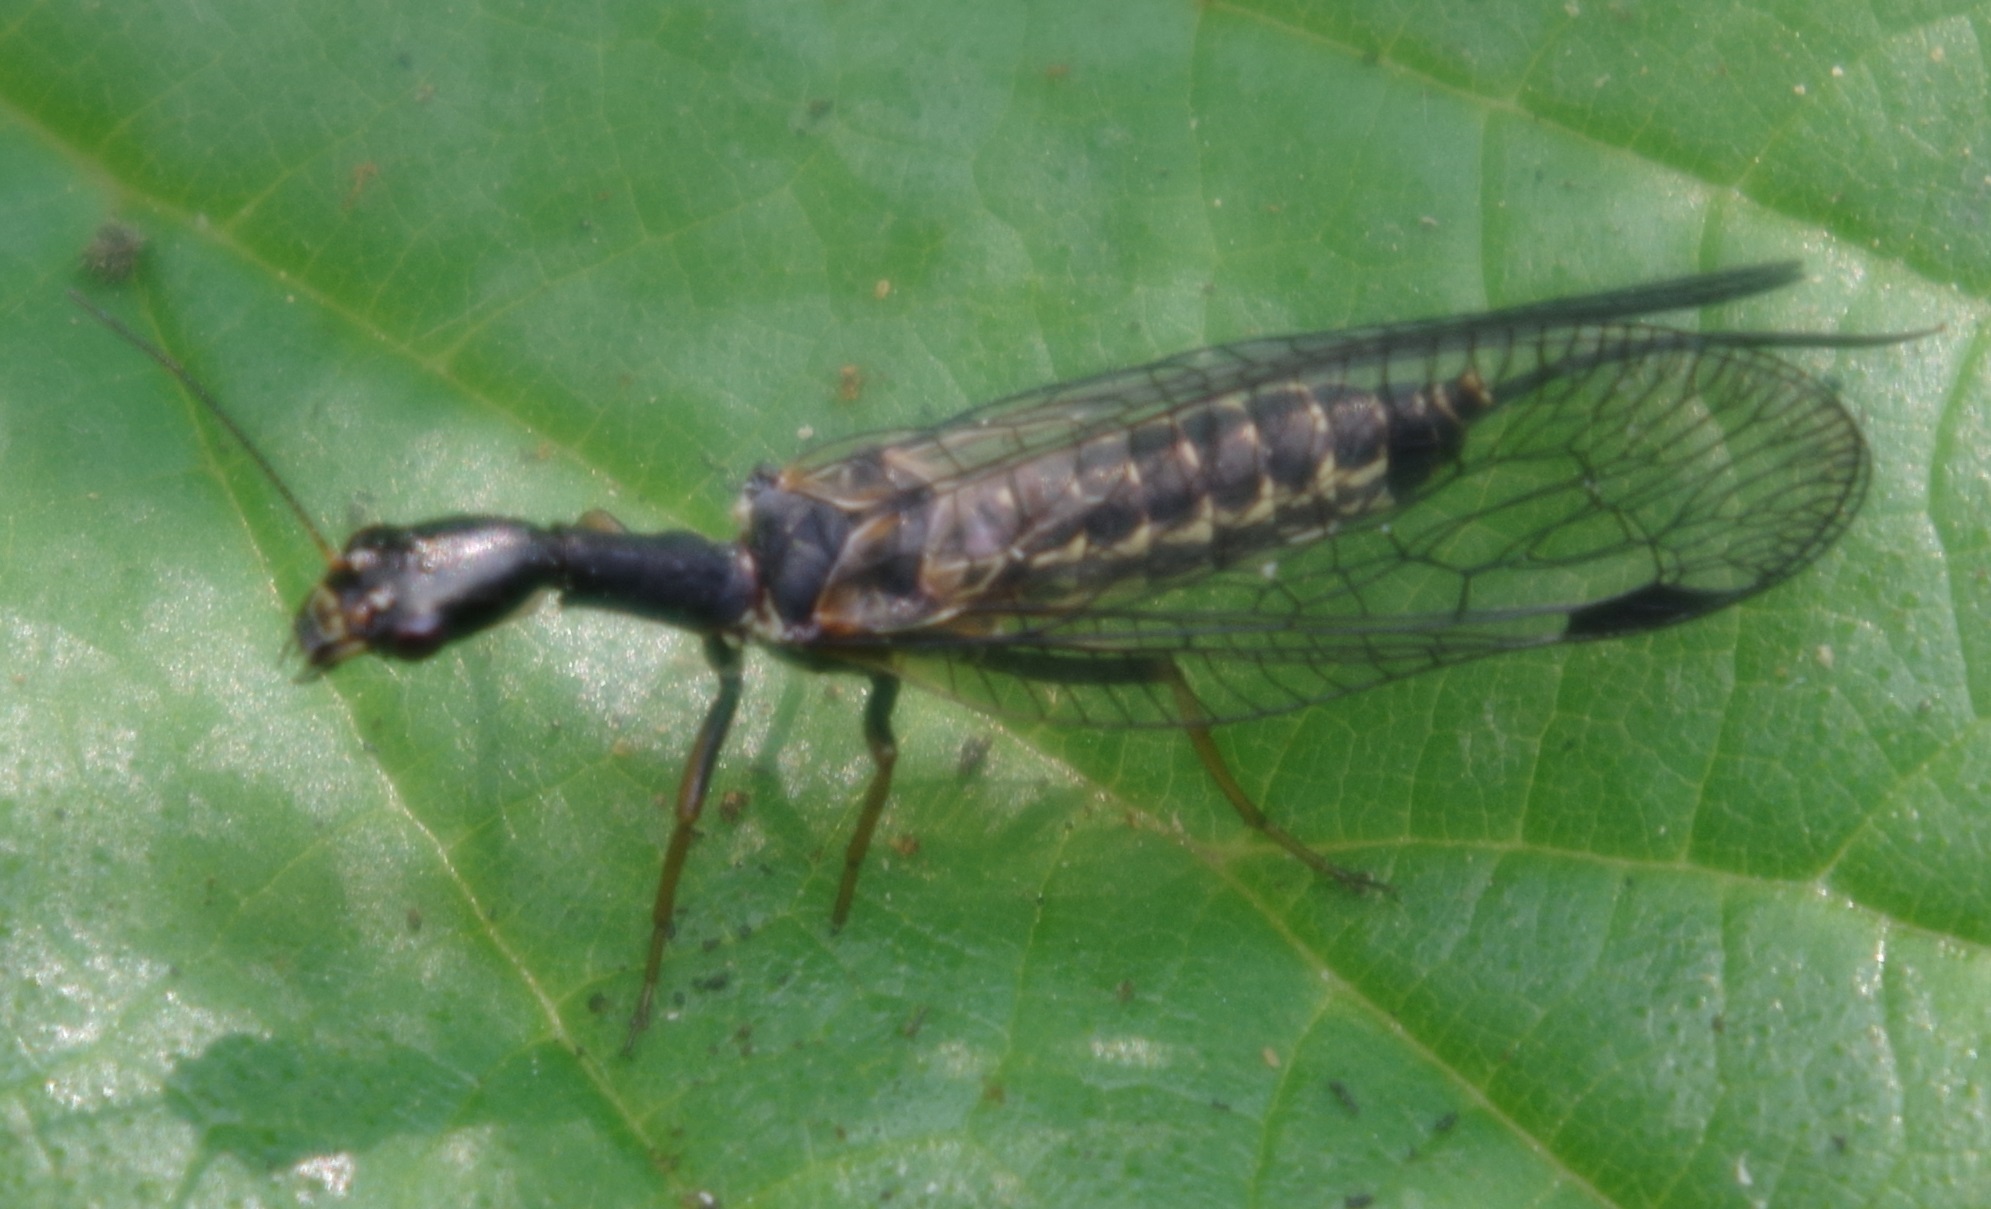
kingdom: Animalia
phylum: Arthropoda
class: Insecta
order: Raphidioptera
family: Raphidiidae
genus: Phaeostigma
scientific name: Phaeostigma notatum
